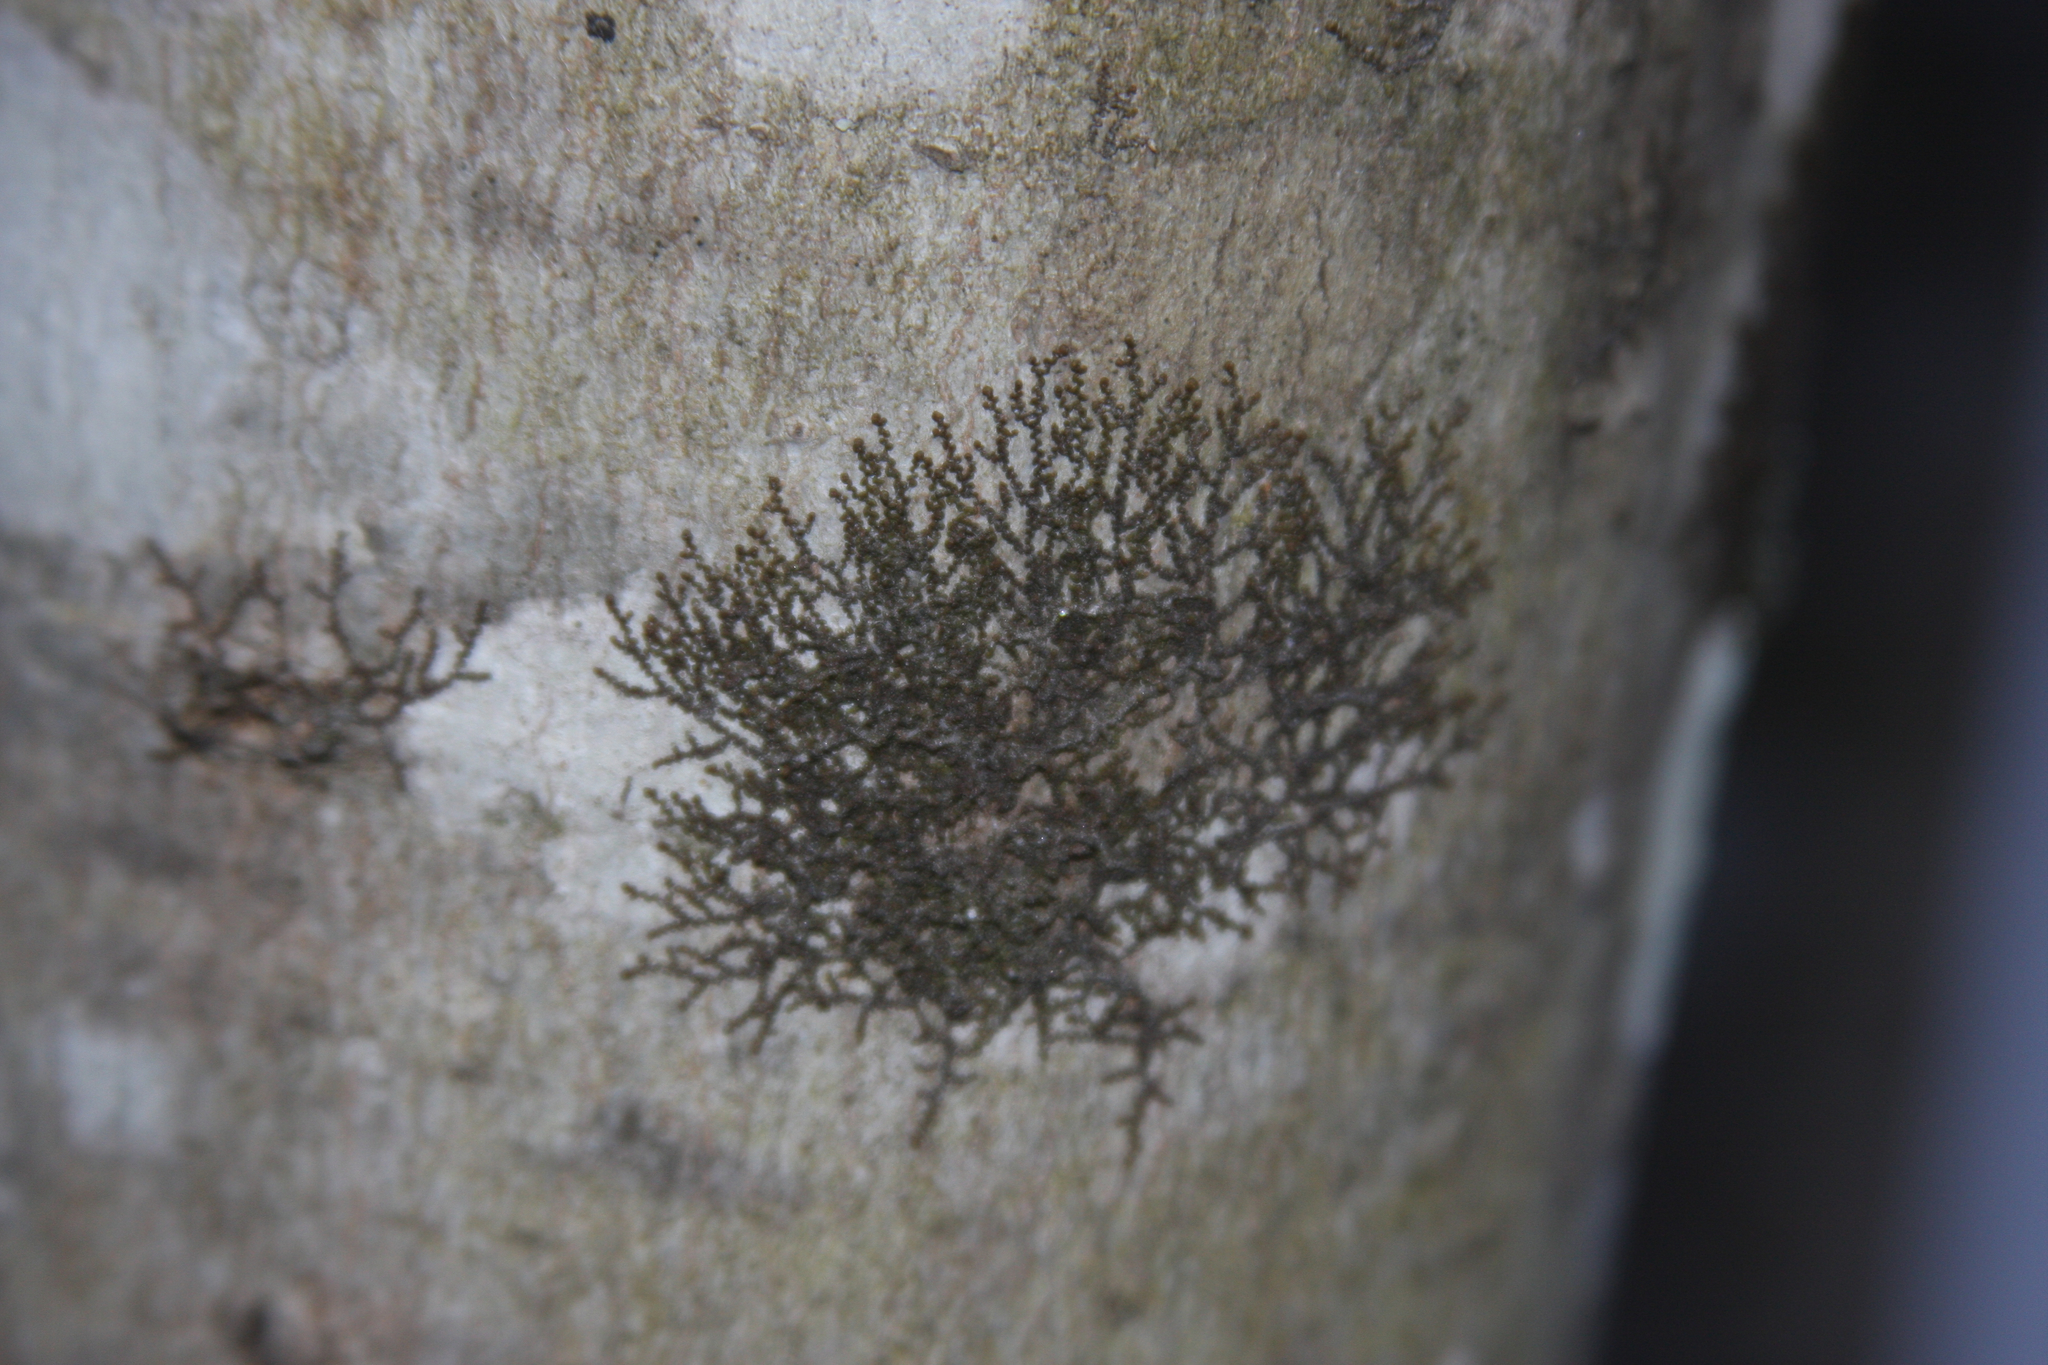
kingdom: Plantae
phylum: Marchantiophyta
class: Jungermanniopsida
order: Porellales
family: Frullaniaceae
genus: Frullania
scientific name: Frullania eboracensis
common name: New york scalewort
